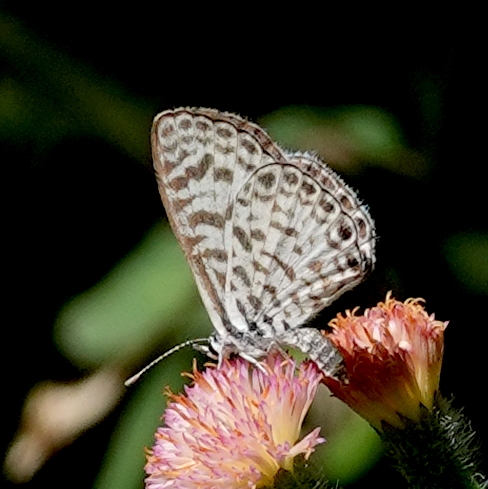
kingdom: Animalia
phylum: Arthropoda
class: Insecta
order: Lepidoptera
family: Lycaenidae
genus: Leptotes
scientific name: Leptotes cassius
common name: Cassius blue
